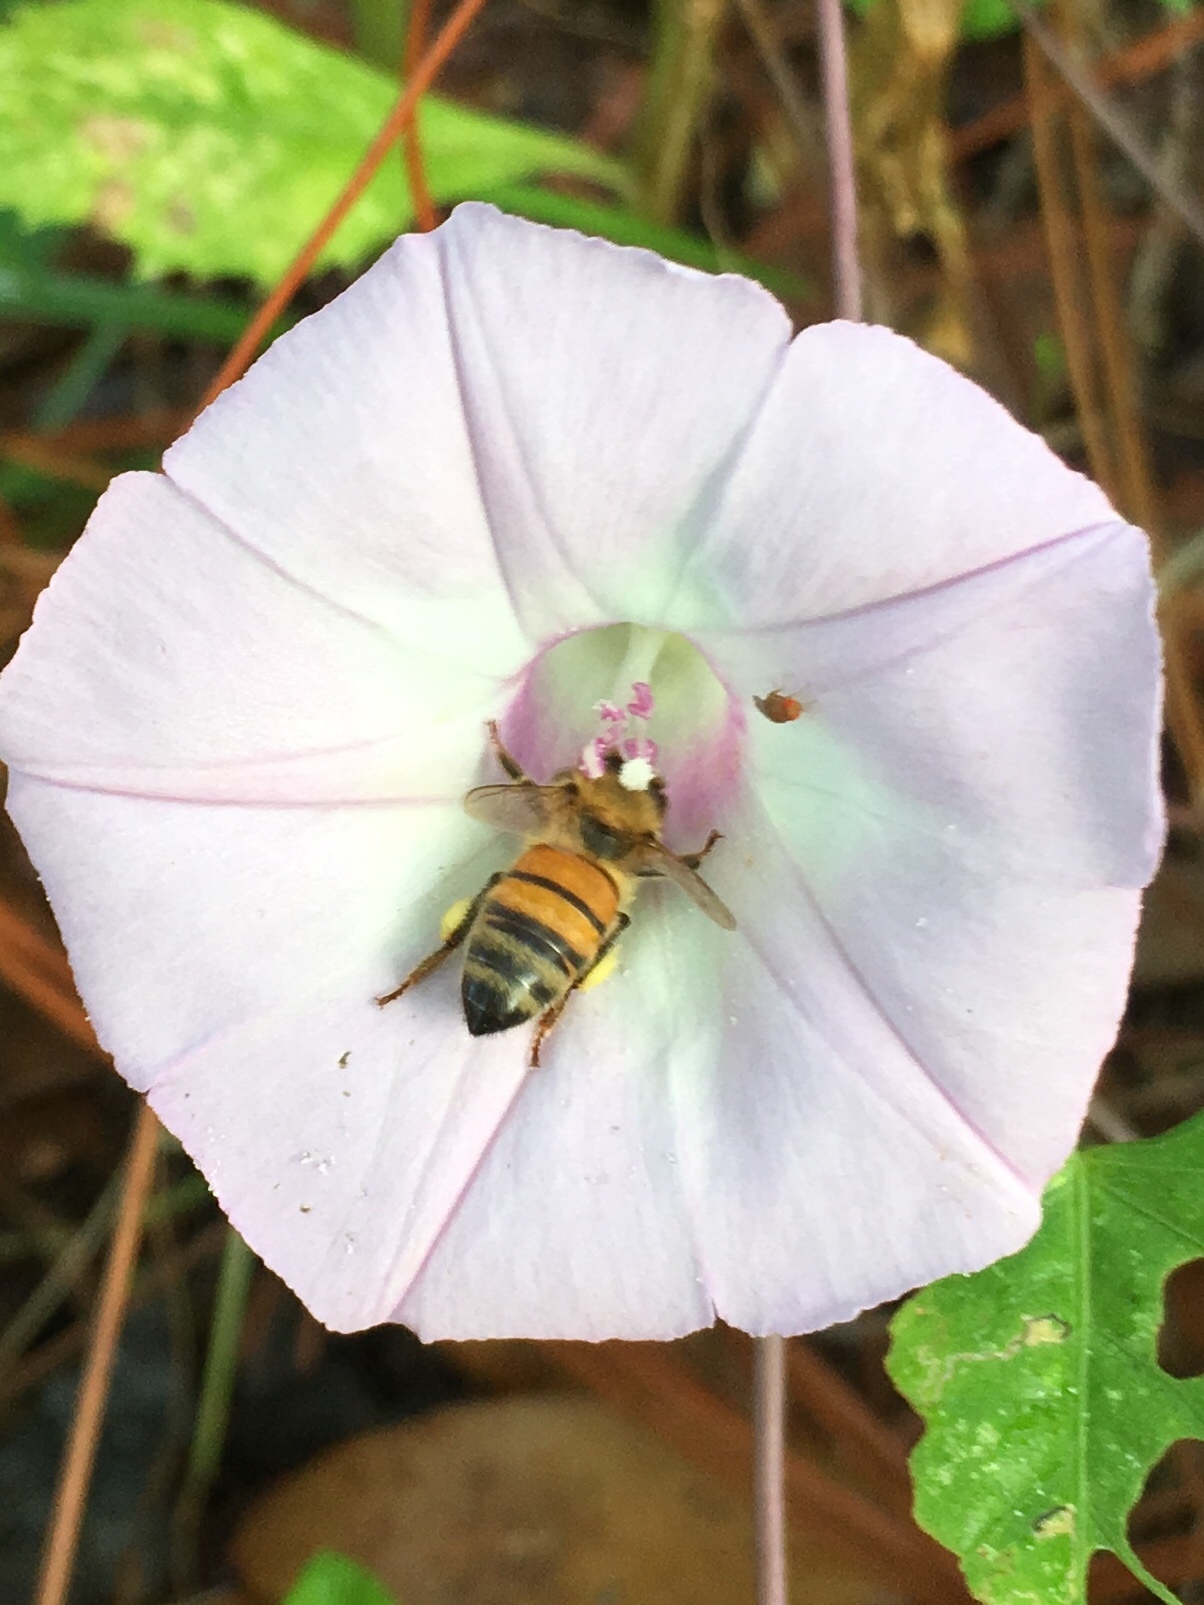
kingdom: Animalia
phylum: Arthropoda
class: Insecta
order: Hymenoptera
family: Apidae
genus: Apis
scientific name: Apis mellifera
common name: Honey bee
